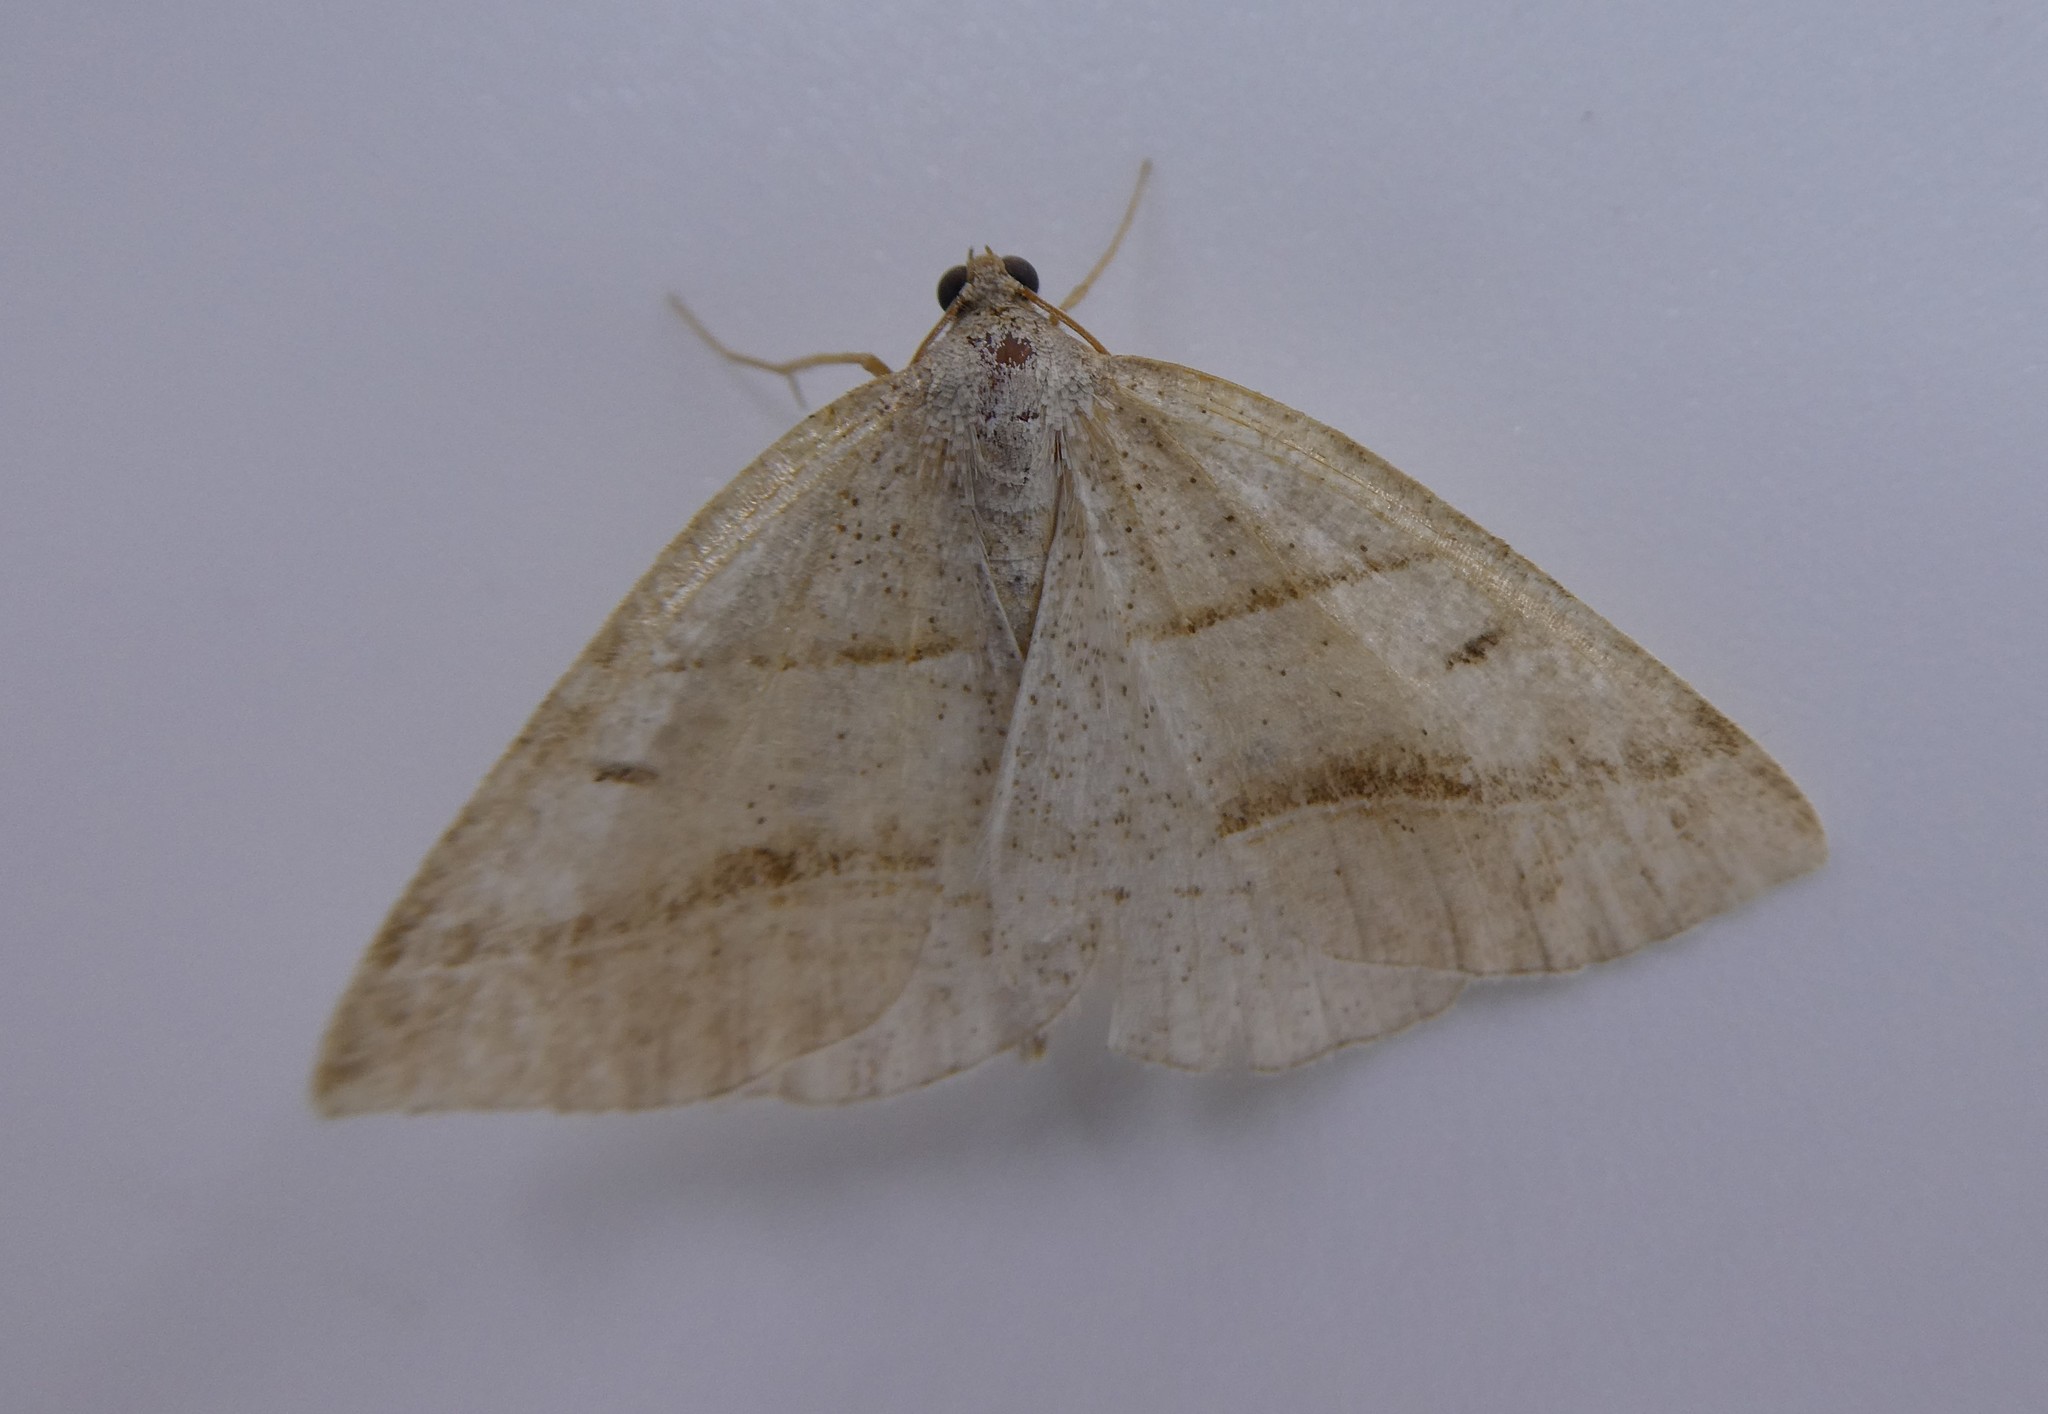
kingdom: Animalia
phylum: Arthropoda
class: Insecta
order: Lepidoptera
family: Pterophoridae
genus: Pterophorus
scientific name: Pterophorus Petrophora subaequaria
